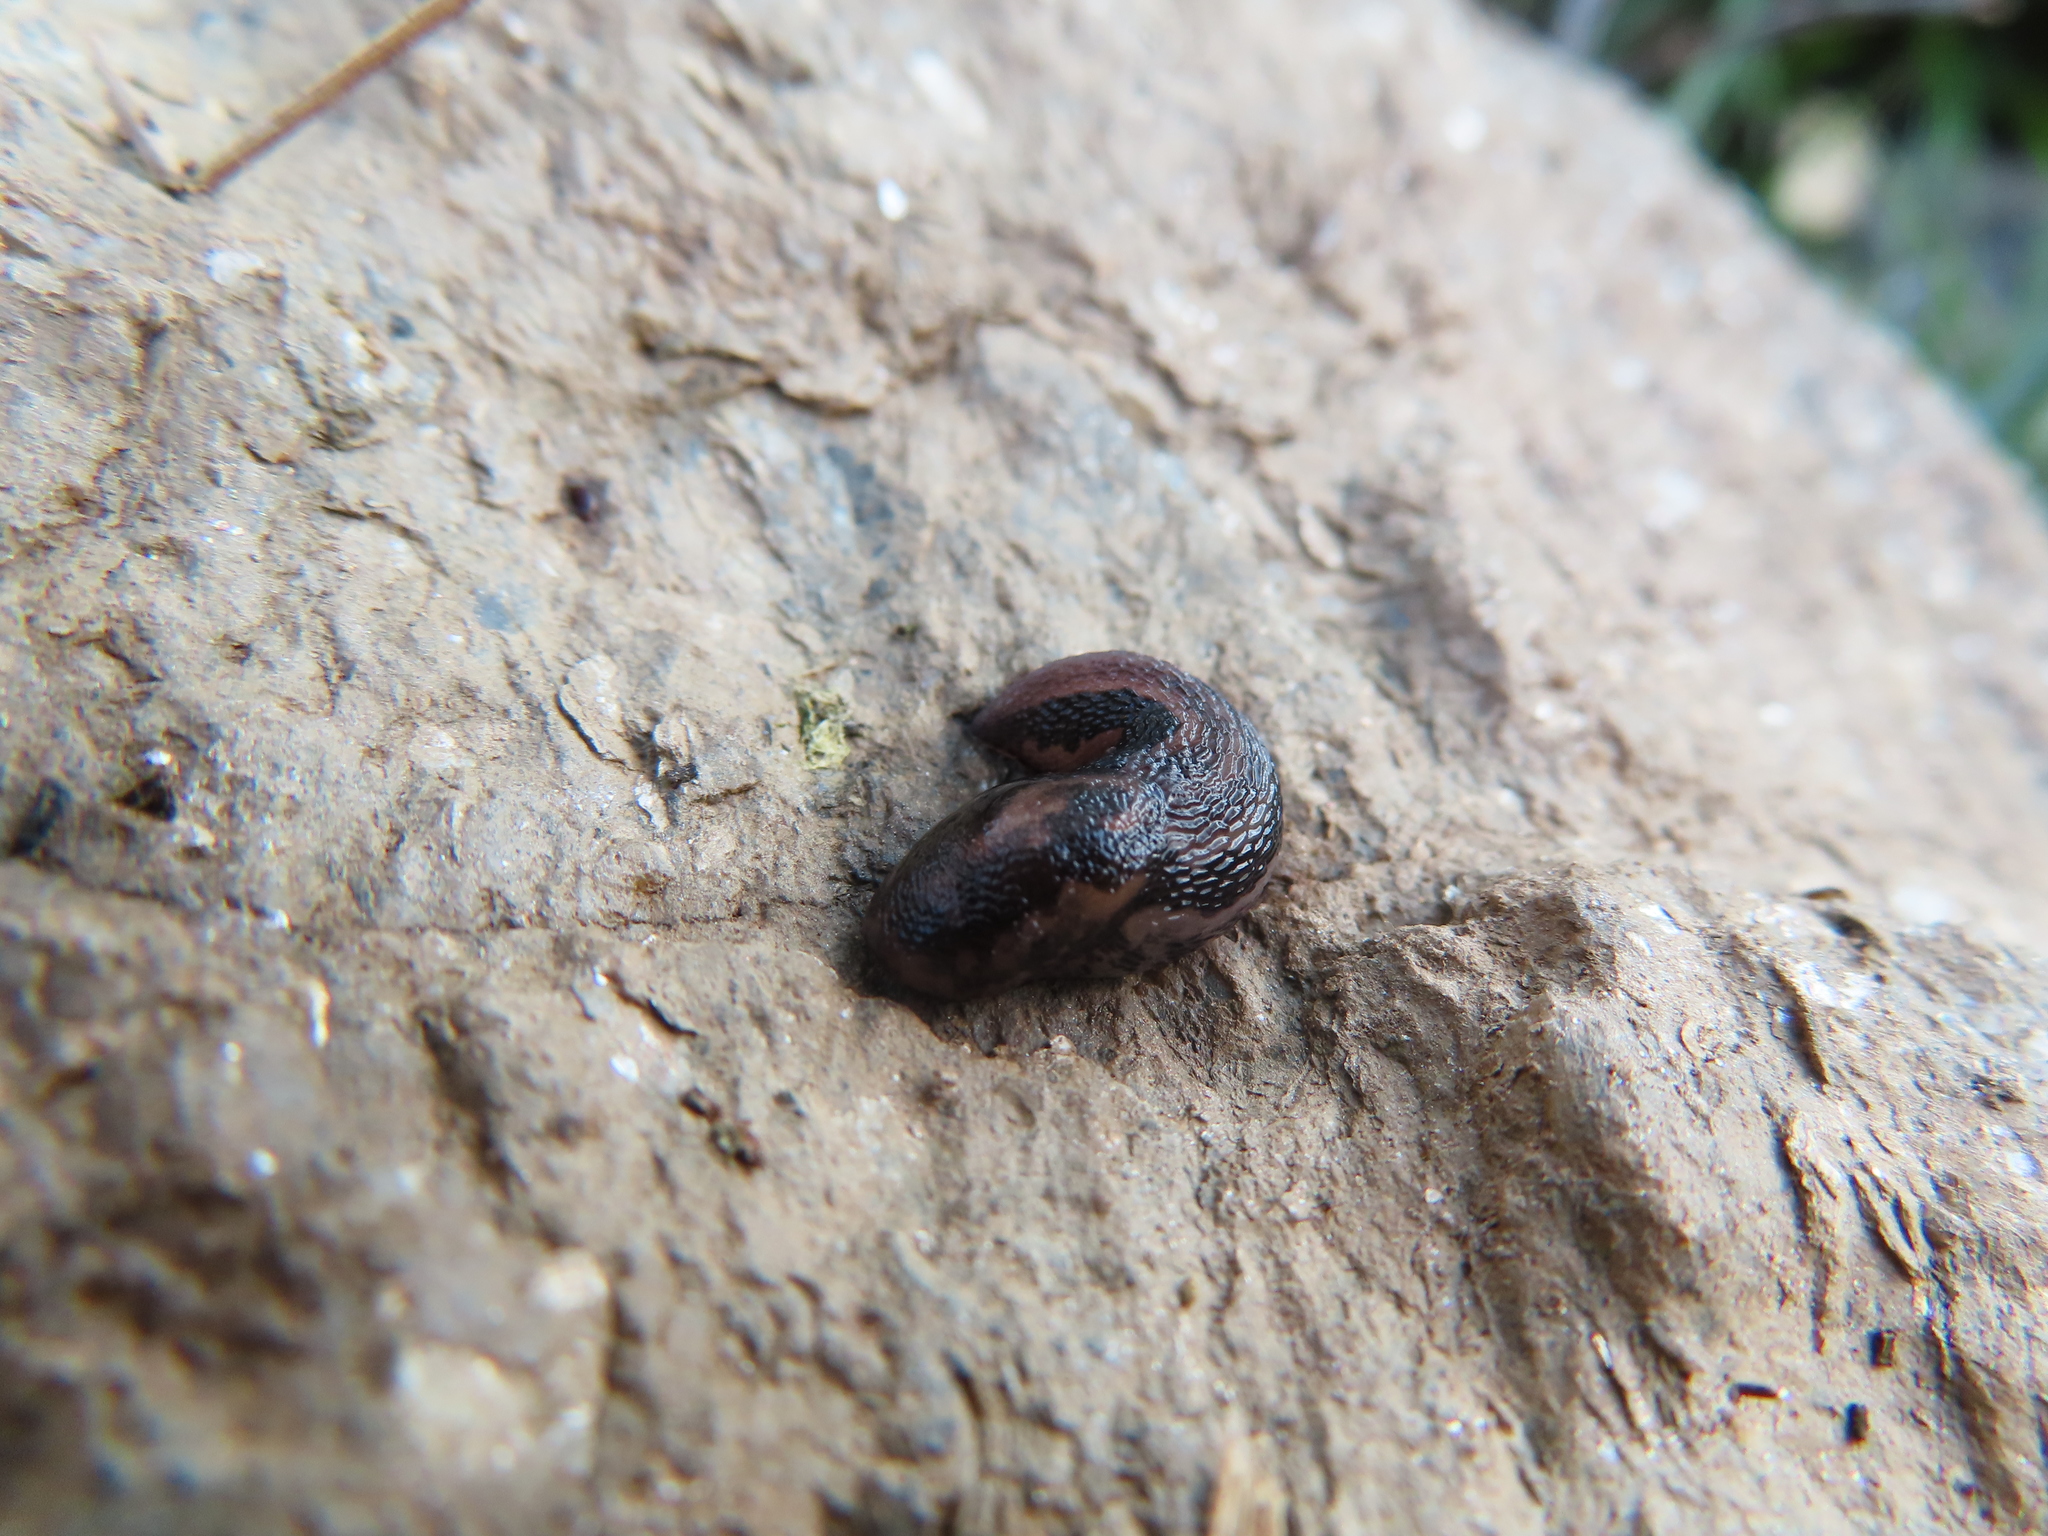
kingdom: Animalia
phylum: Mollusca
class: Gastropoda
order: Stylommatophora
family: Limacidae
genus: Limax
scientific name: Limax maximus
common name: Great grey slug
